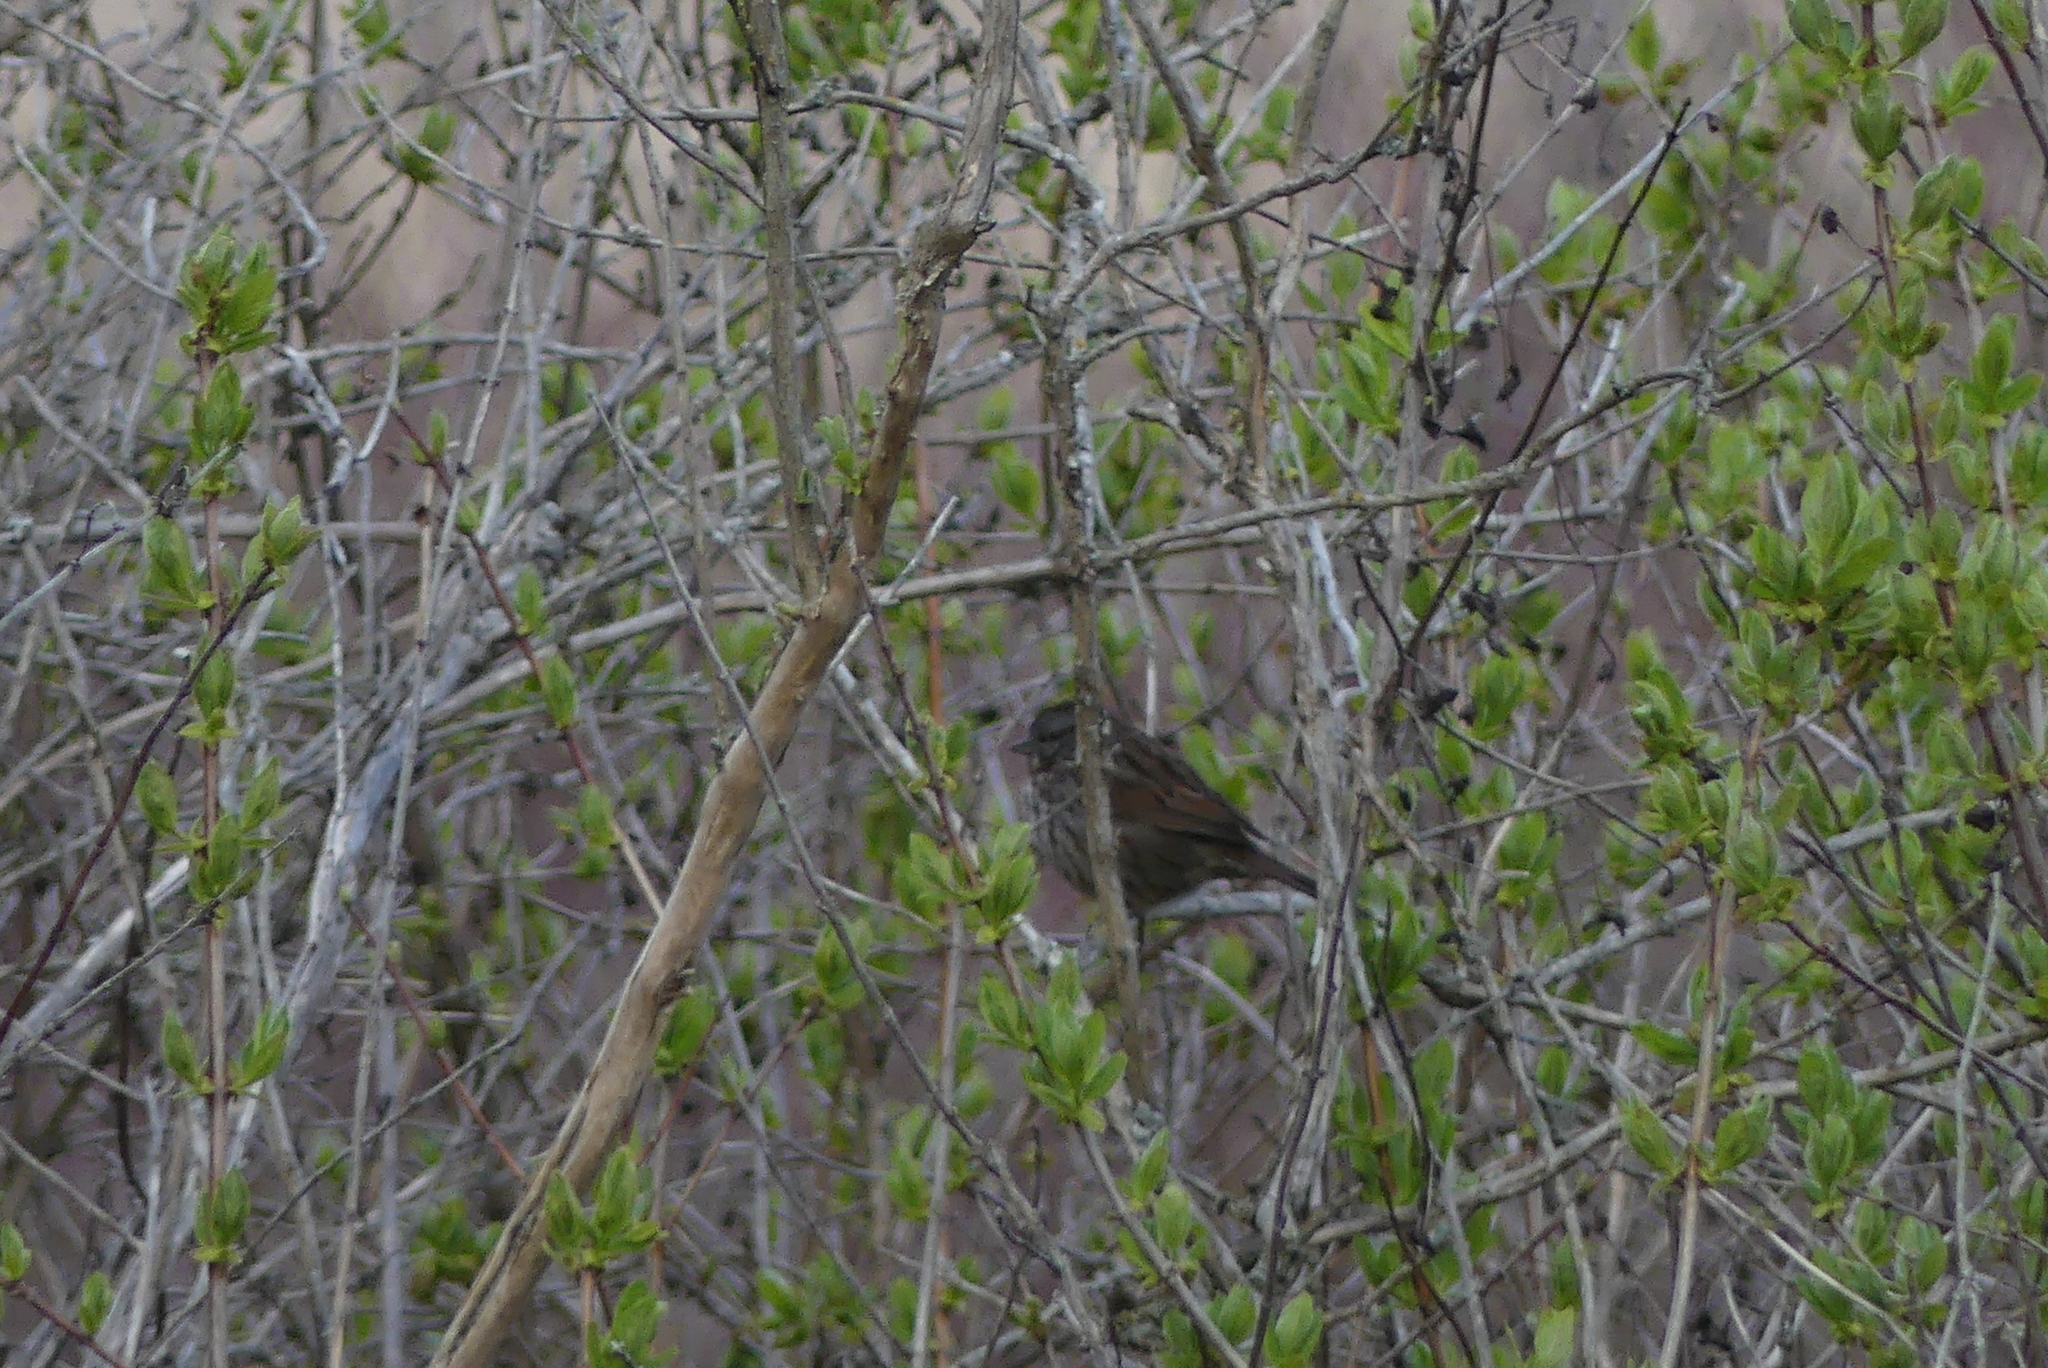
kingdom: Animalia
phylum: Chordata
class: Aves
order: Passeriformes
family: Passerellidae
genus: Melospiza
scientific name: Melospiza melodia
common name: Song sparrow
